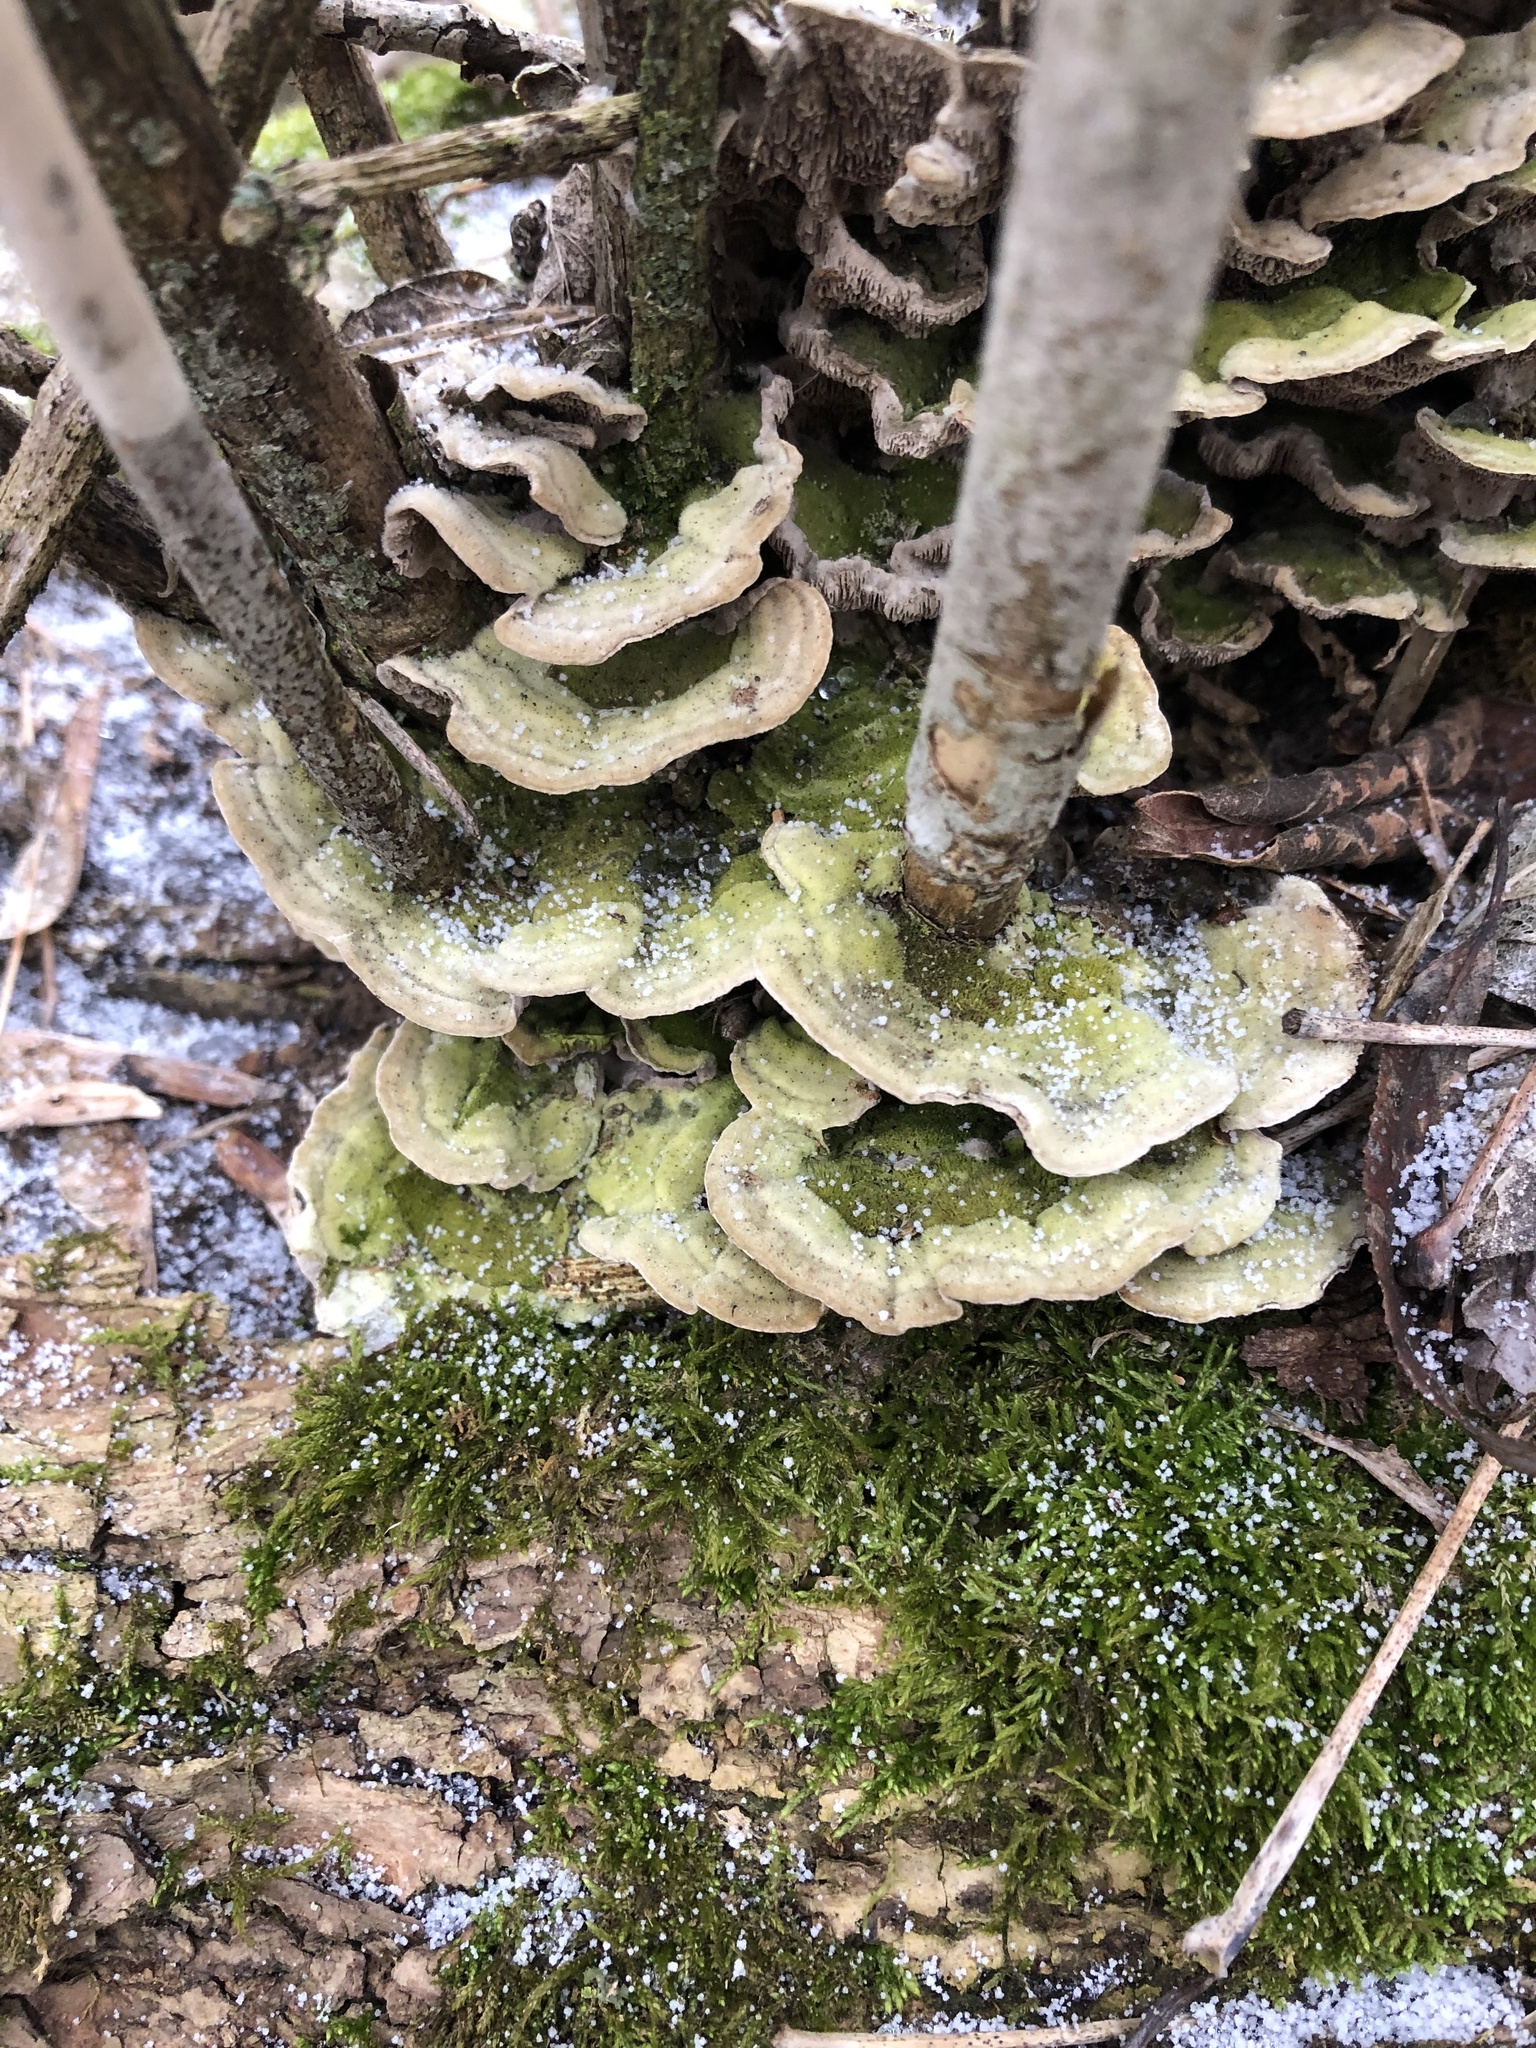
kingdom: Fungi
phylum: Basidiomycota
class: Agaricomycetes
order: Polyporales
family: Cerrenaceae
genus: Cerrena
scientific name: Cerrena unicolor
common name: Mossy maze polypore
